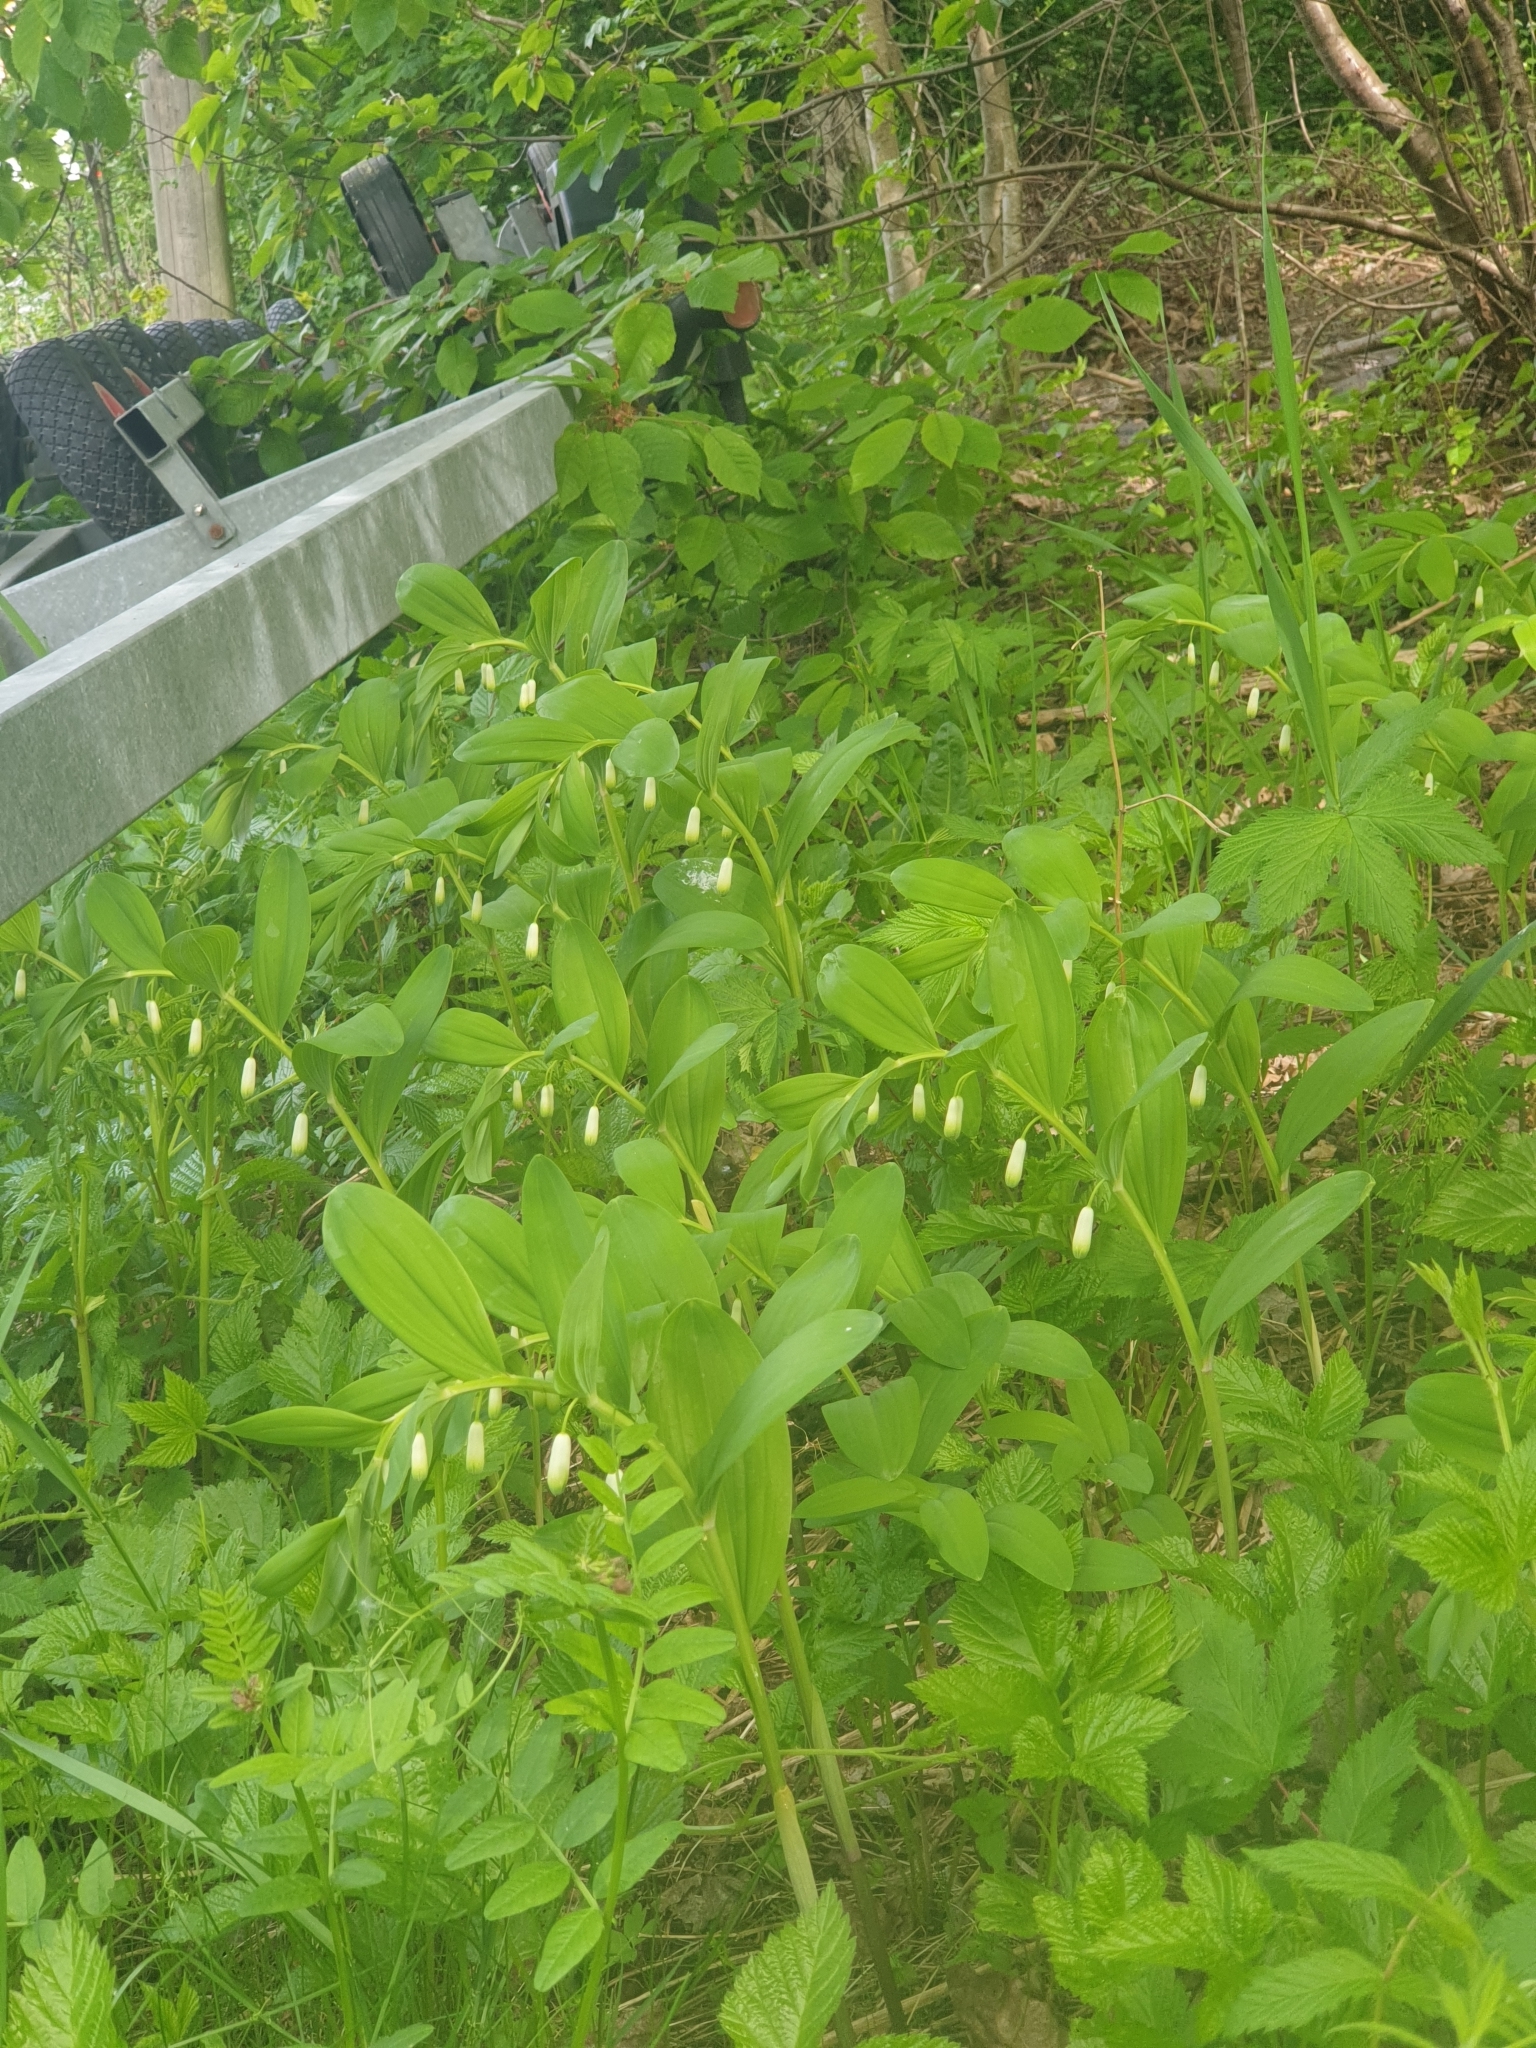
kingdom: Plantae
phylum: Tracheophyta
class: Liliopsida
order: Asparagales
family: Asparagaceae
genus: Polygonatum
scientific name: Polygonatum odoratum
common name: Angular solomon's-seal
